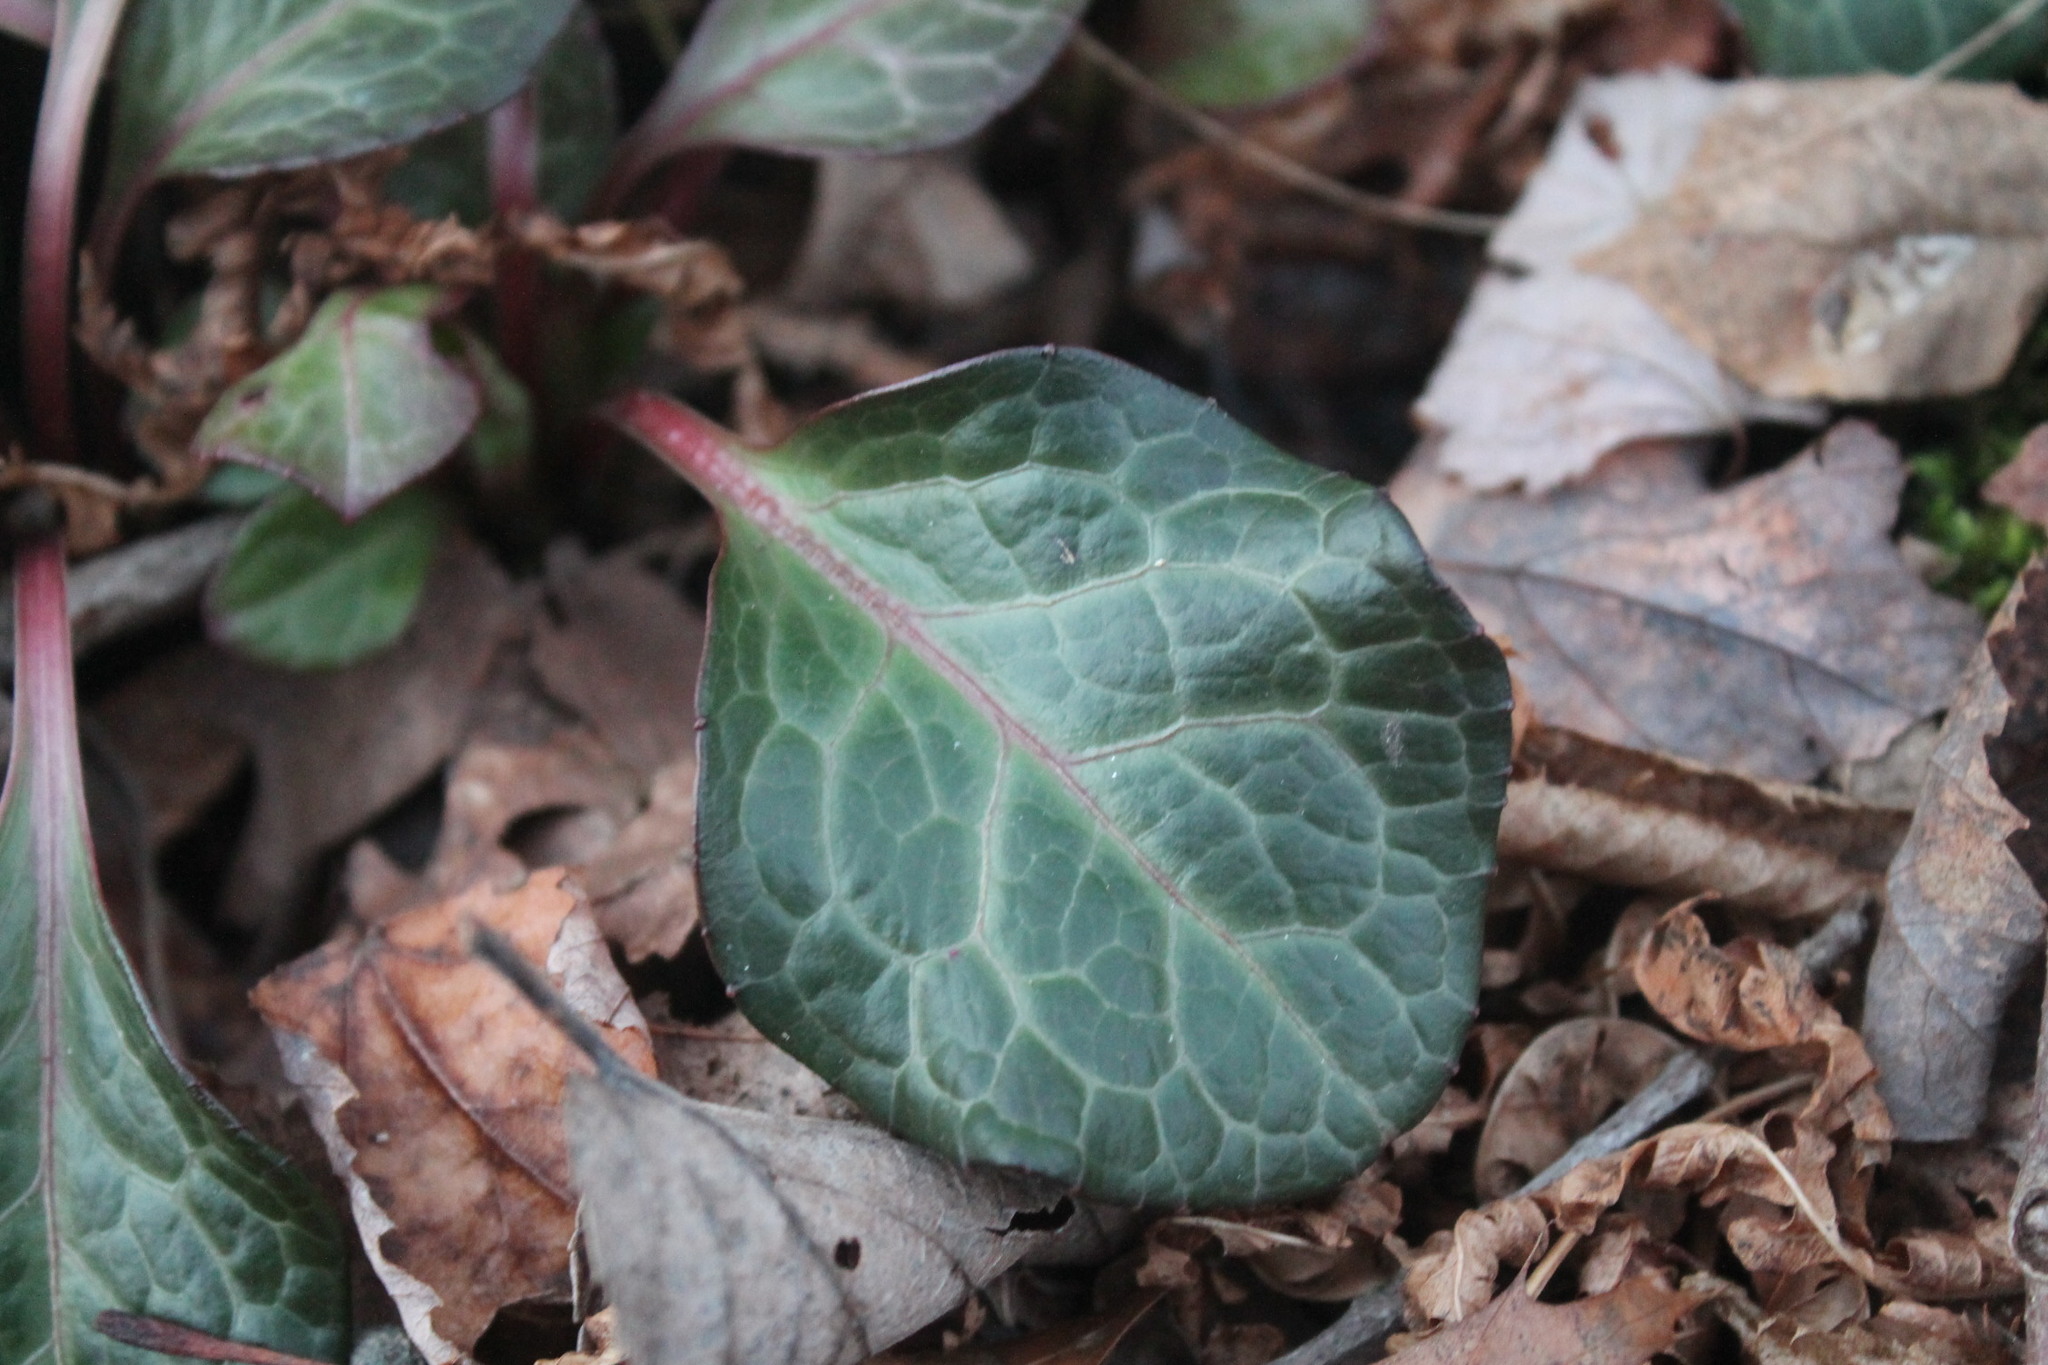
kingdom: Plantae
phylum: Tracheophyta
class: Magnoliopsida
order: Ericales
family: Ericaceae
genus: Pyrola
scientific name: Pyrola americana
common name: American wintergreen
